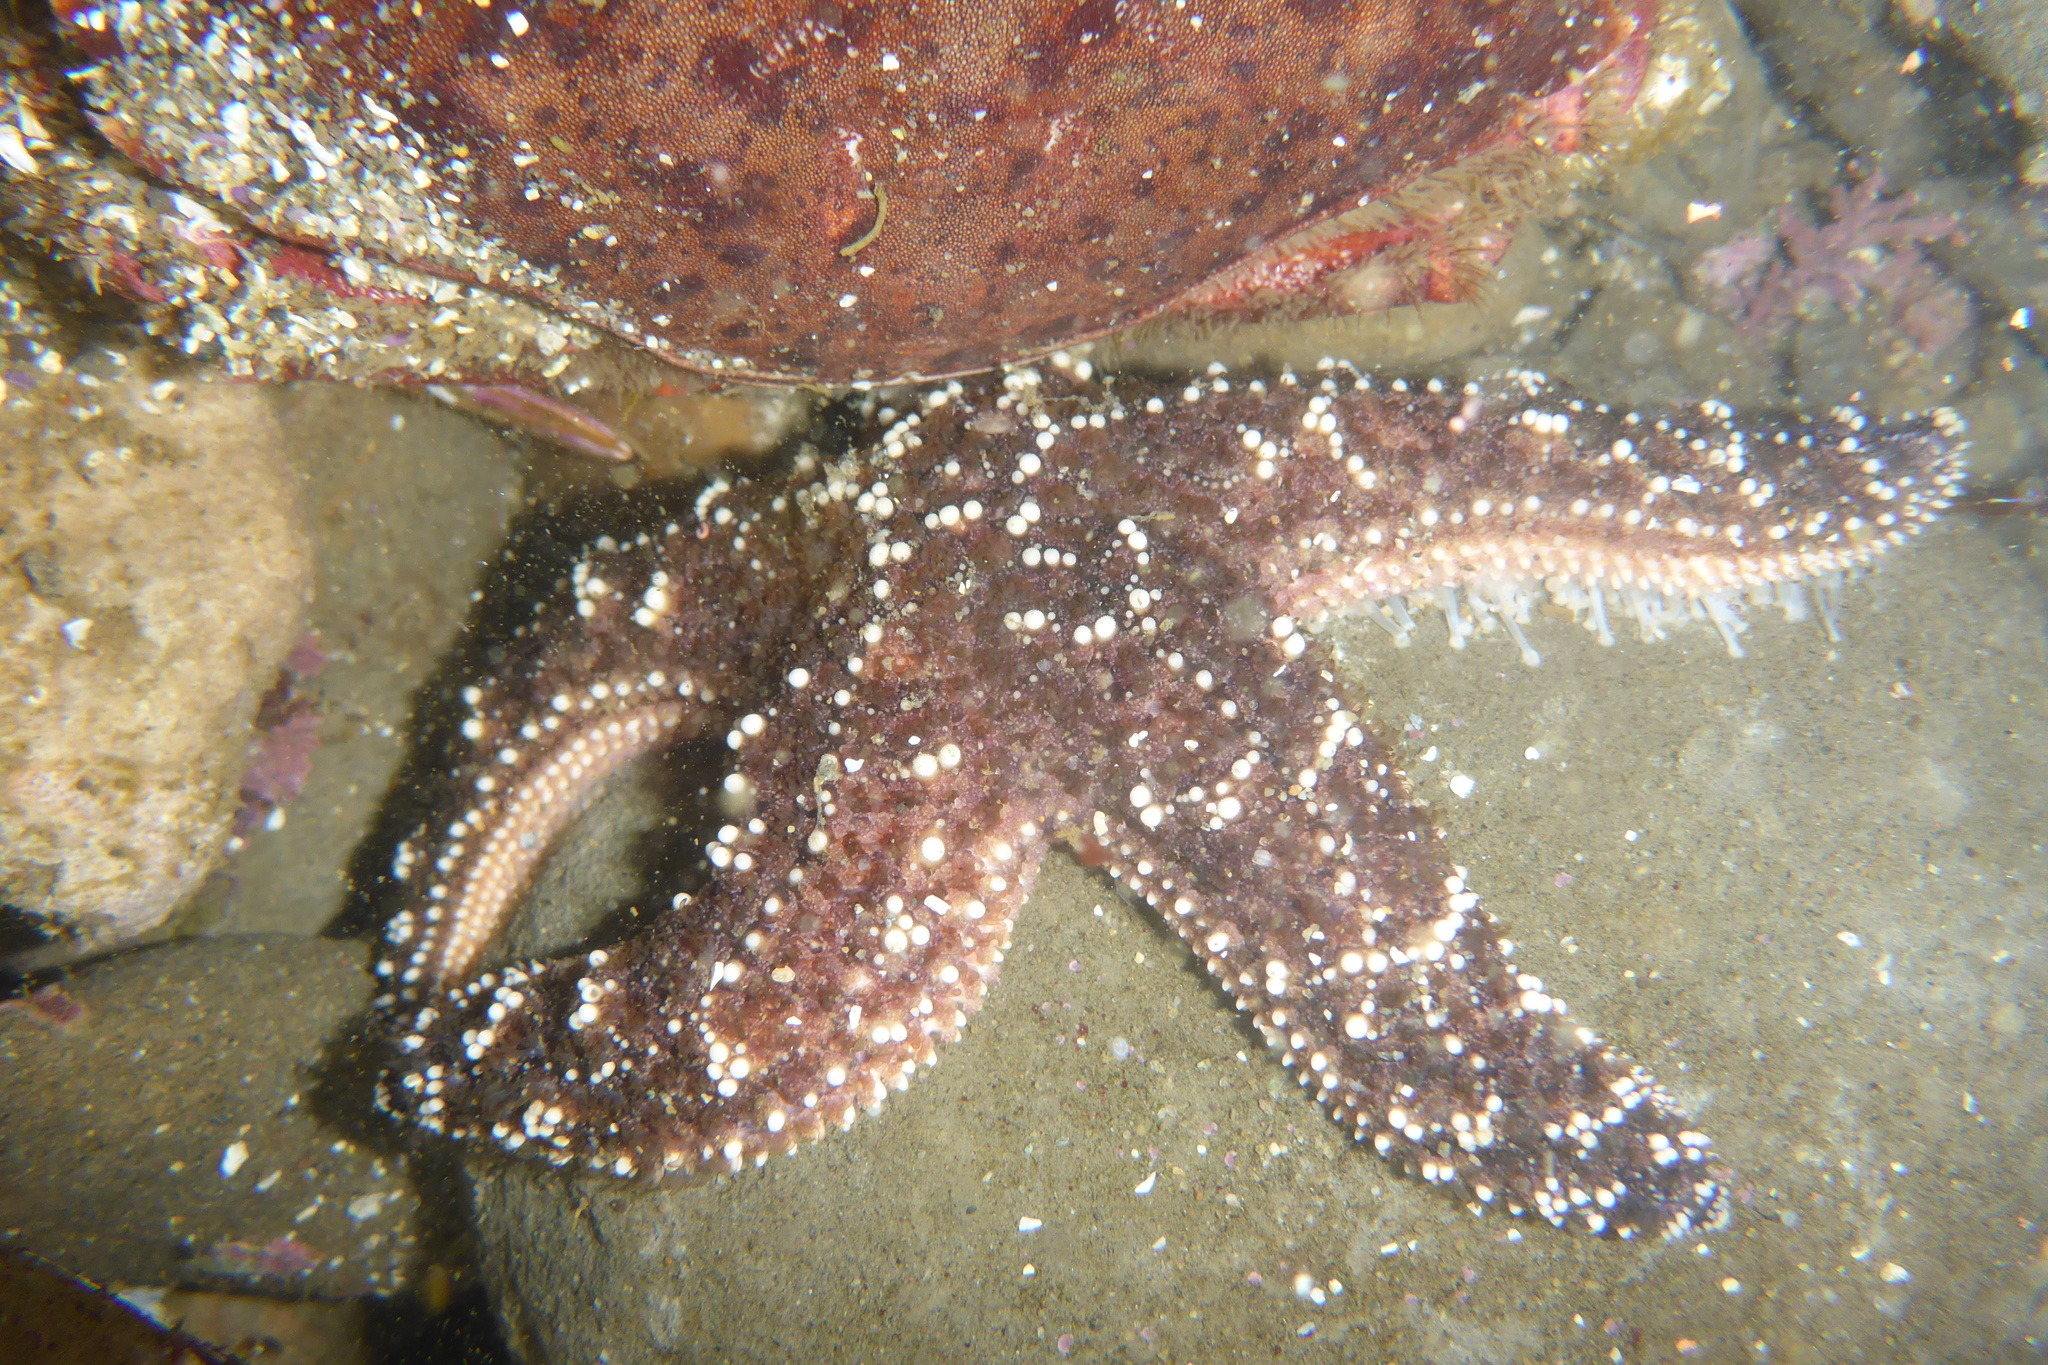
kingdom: Animalia
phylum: Echinodermata
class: Asteroidea
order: Forcipulatida
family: Asteriidae
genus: Pisaster
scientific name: Pisaster ochraceus
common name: Ochre stars
